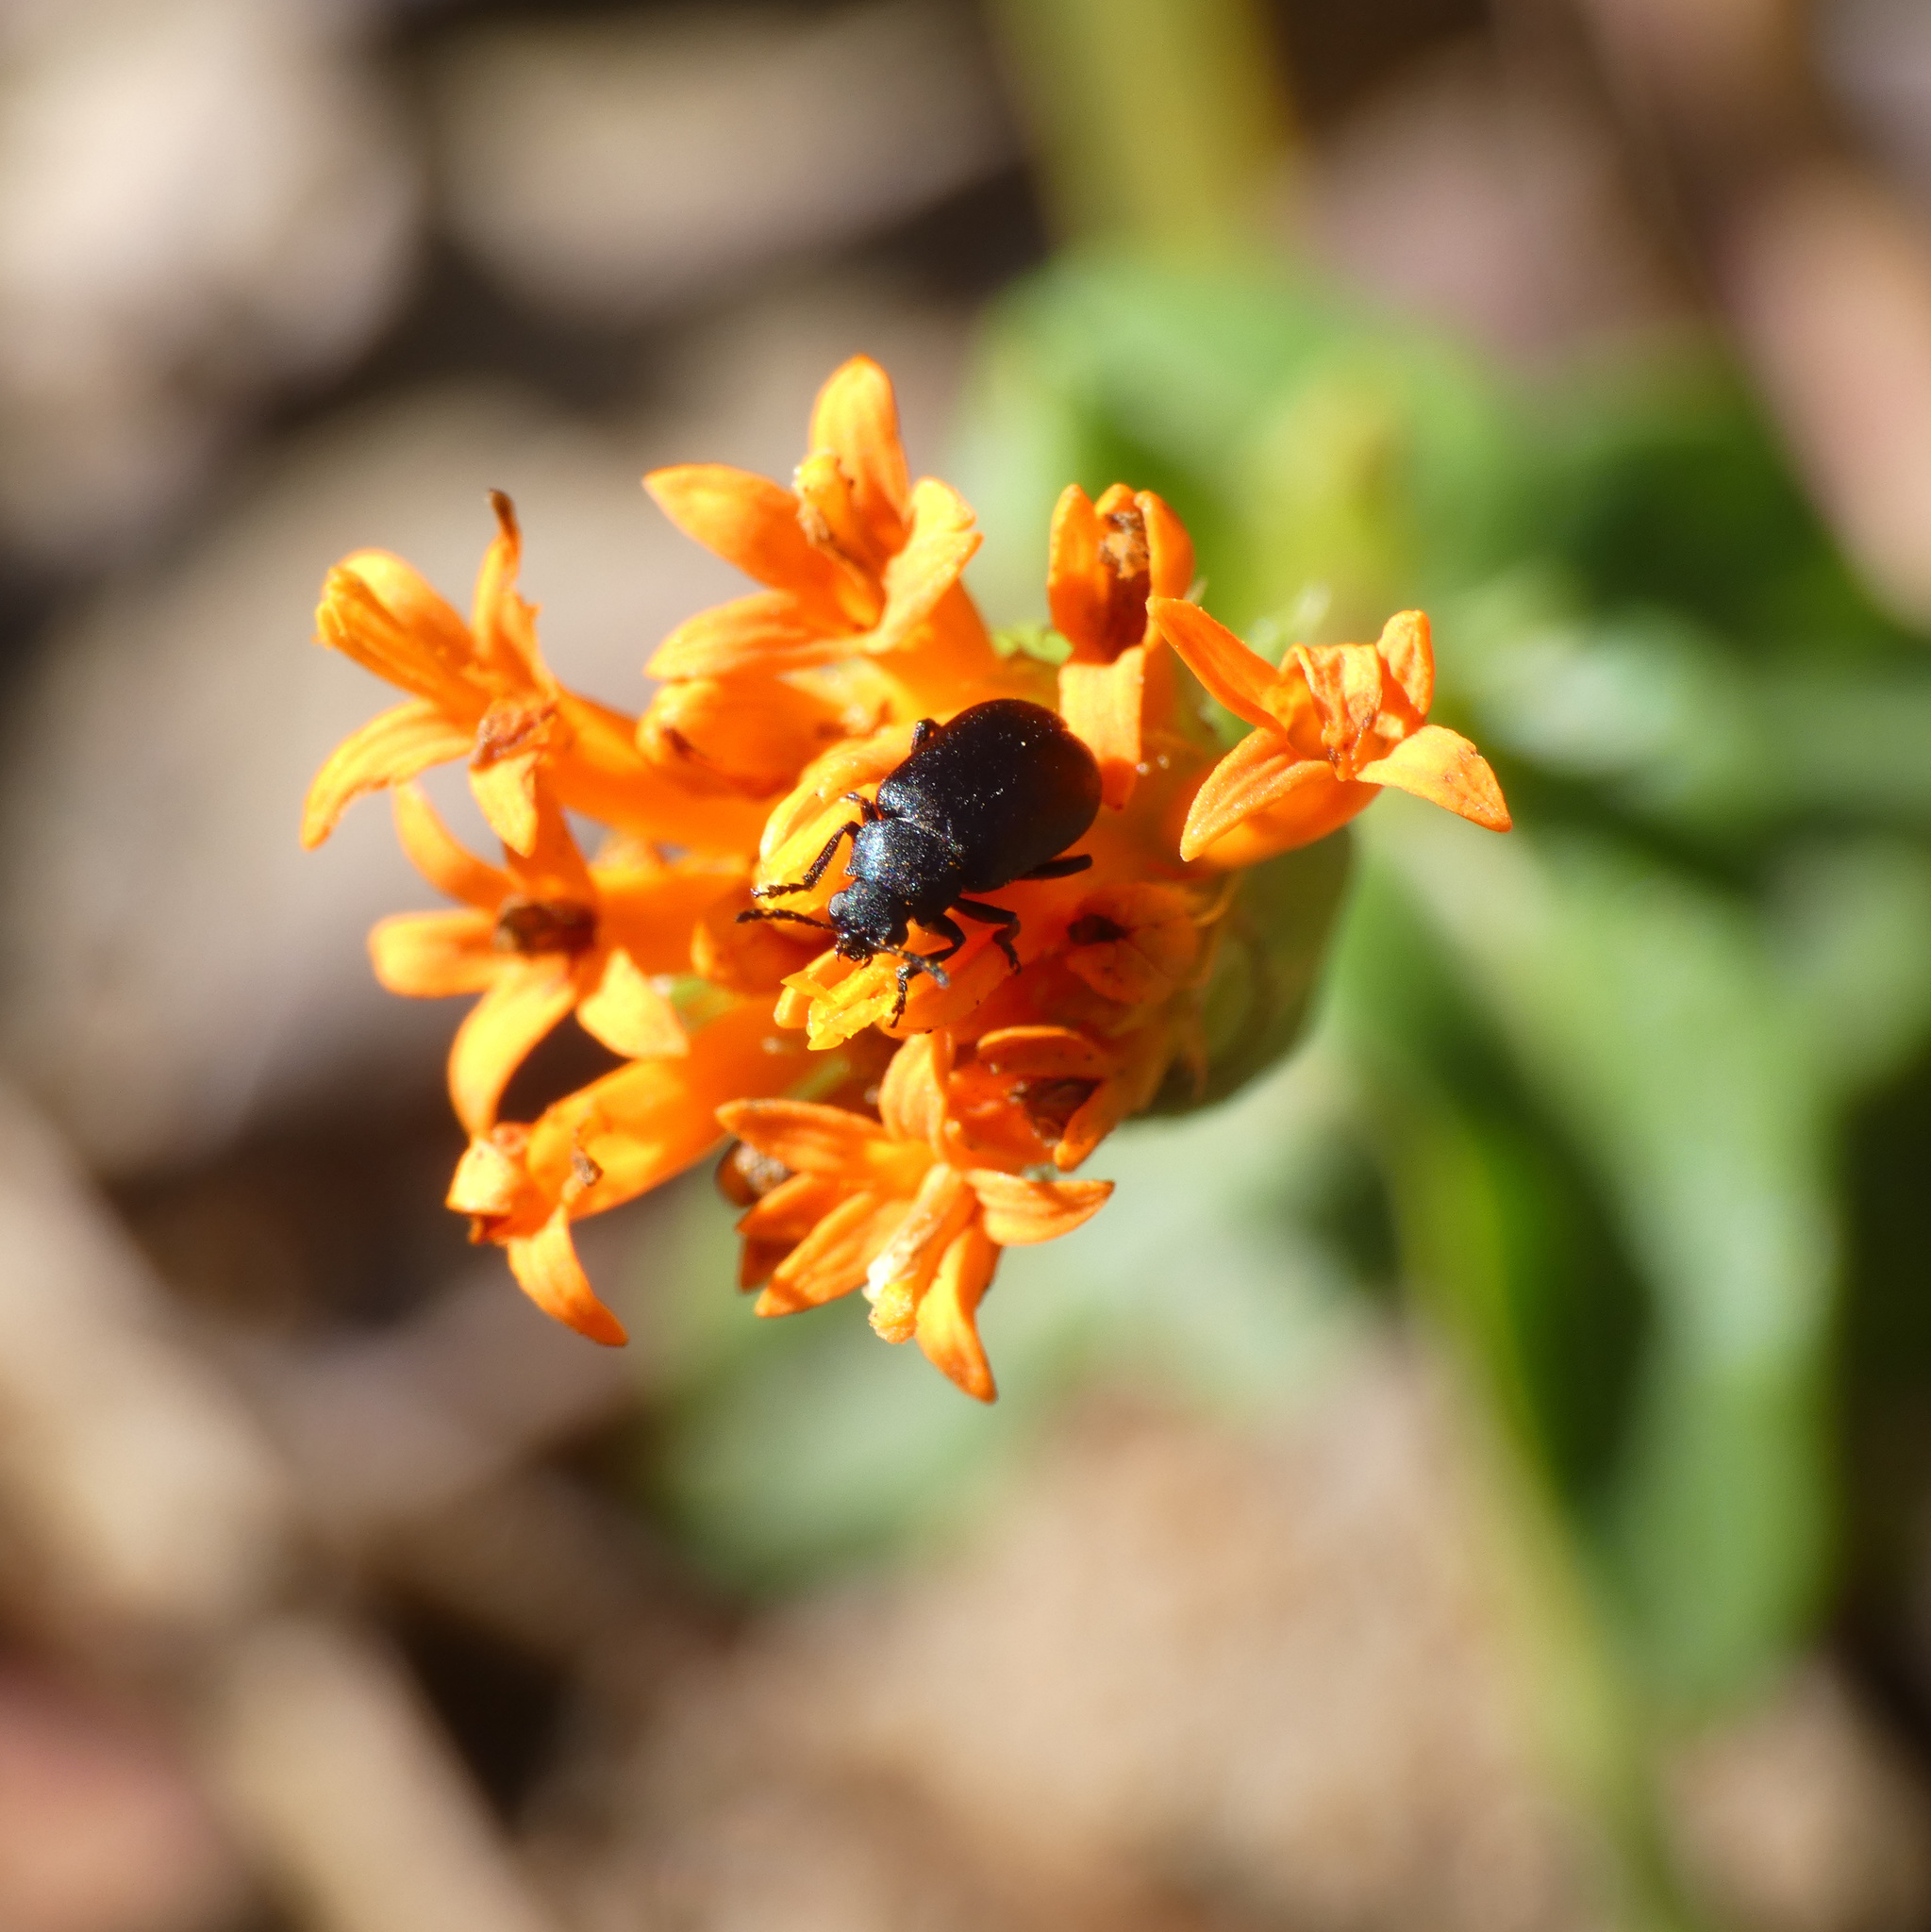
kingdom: Animalia
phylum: Arthropoda
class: Insecta
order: Coleoptera
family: Chrysomelidae
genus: Gastrida
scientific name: Gastrida
